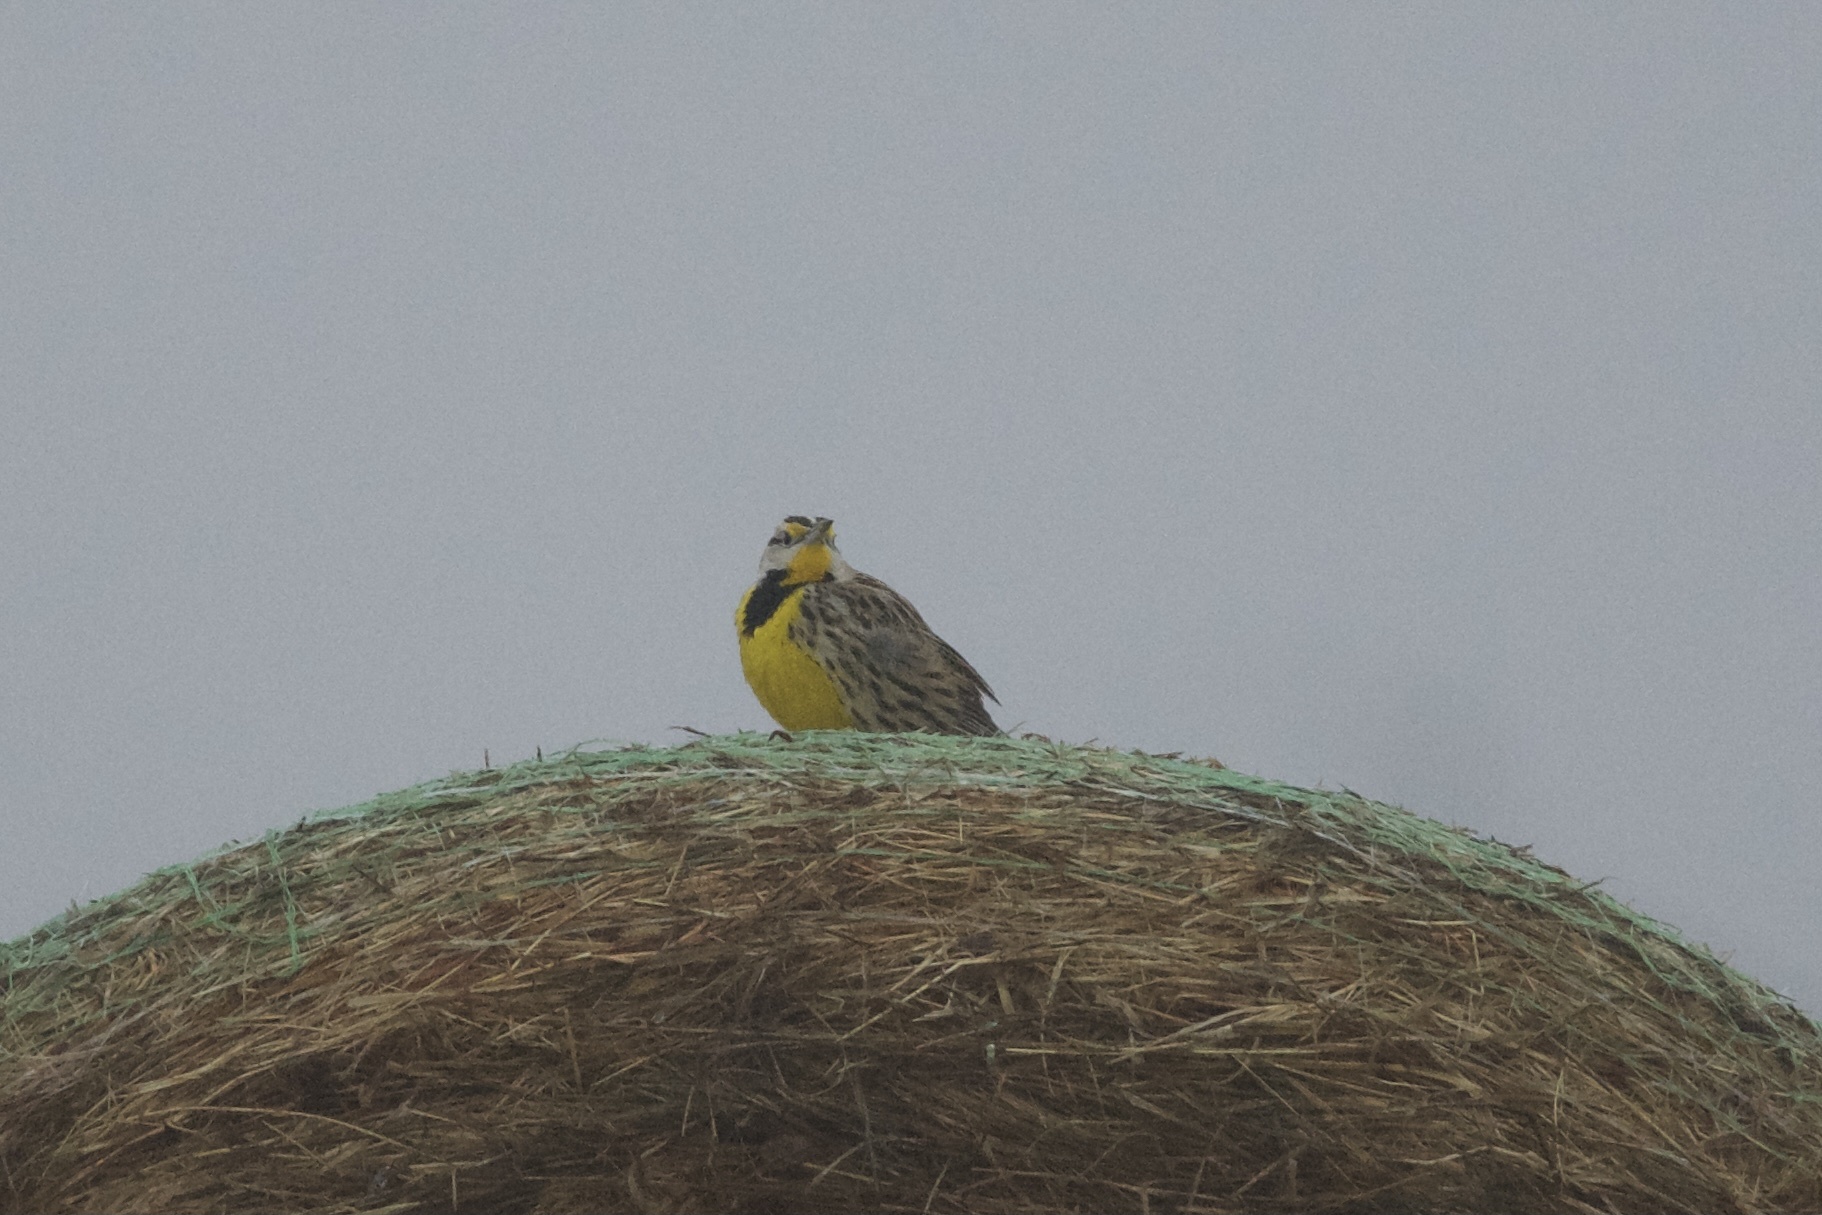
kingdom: Animalia
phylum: Chordata
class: Aves
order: Passeriformes
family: Icteridae
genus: Sturnella
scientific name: Sturnella magna
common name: Eastern meadowlark
